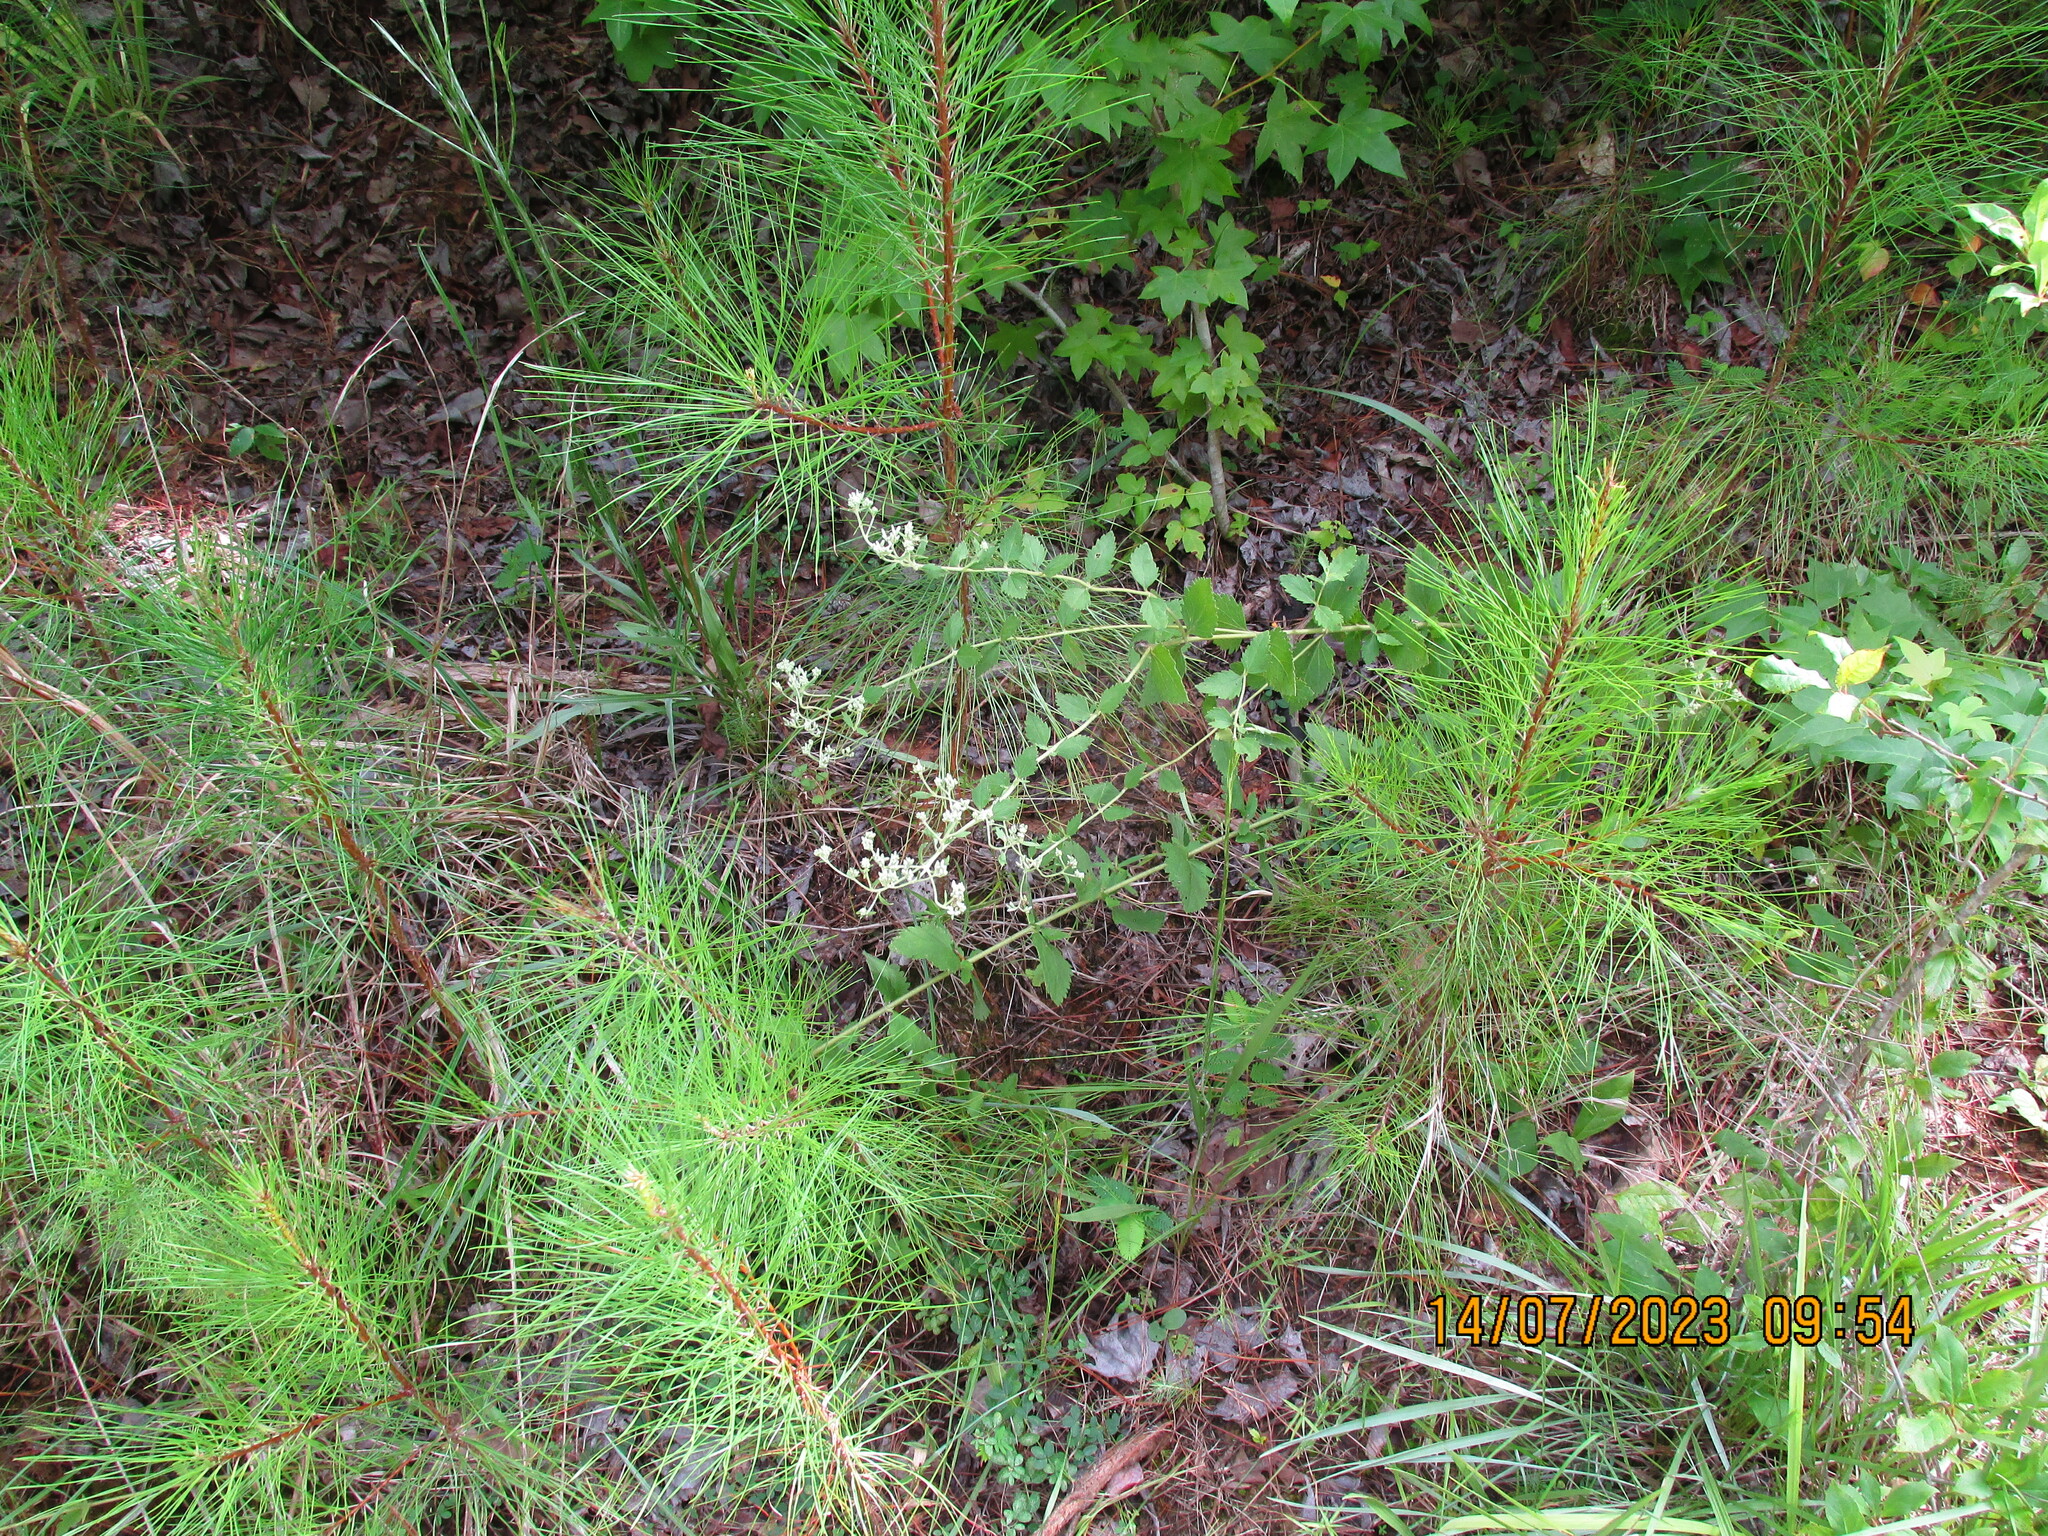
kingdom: Plantae
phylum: Tracheophyta
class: Magnoliopsida
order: Asterales
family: Asteraceae
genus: Eupatorium
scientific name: Eupatorium rotundifolium
